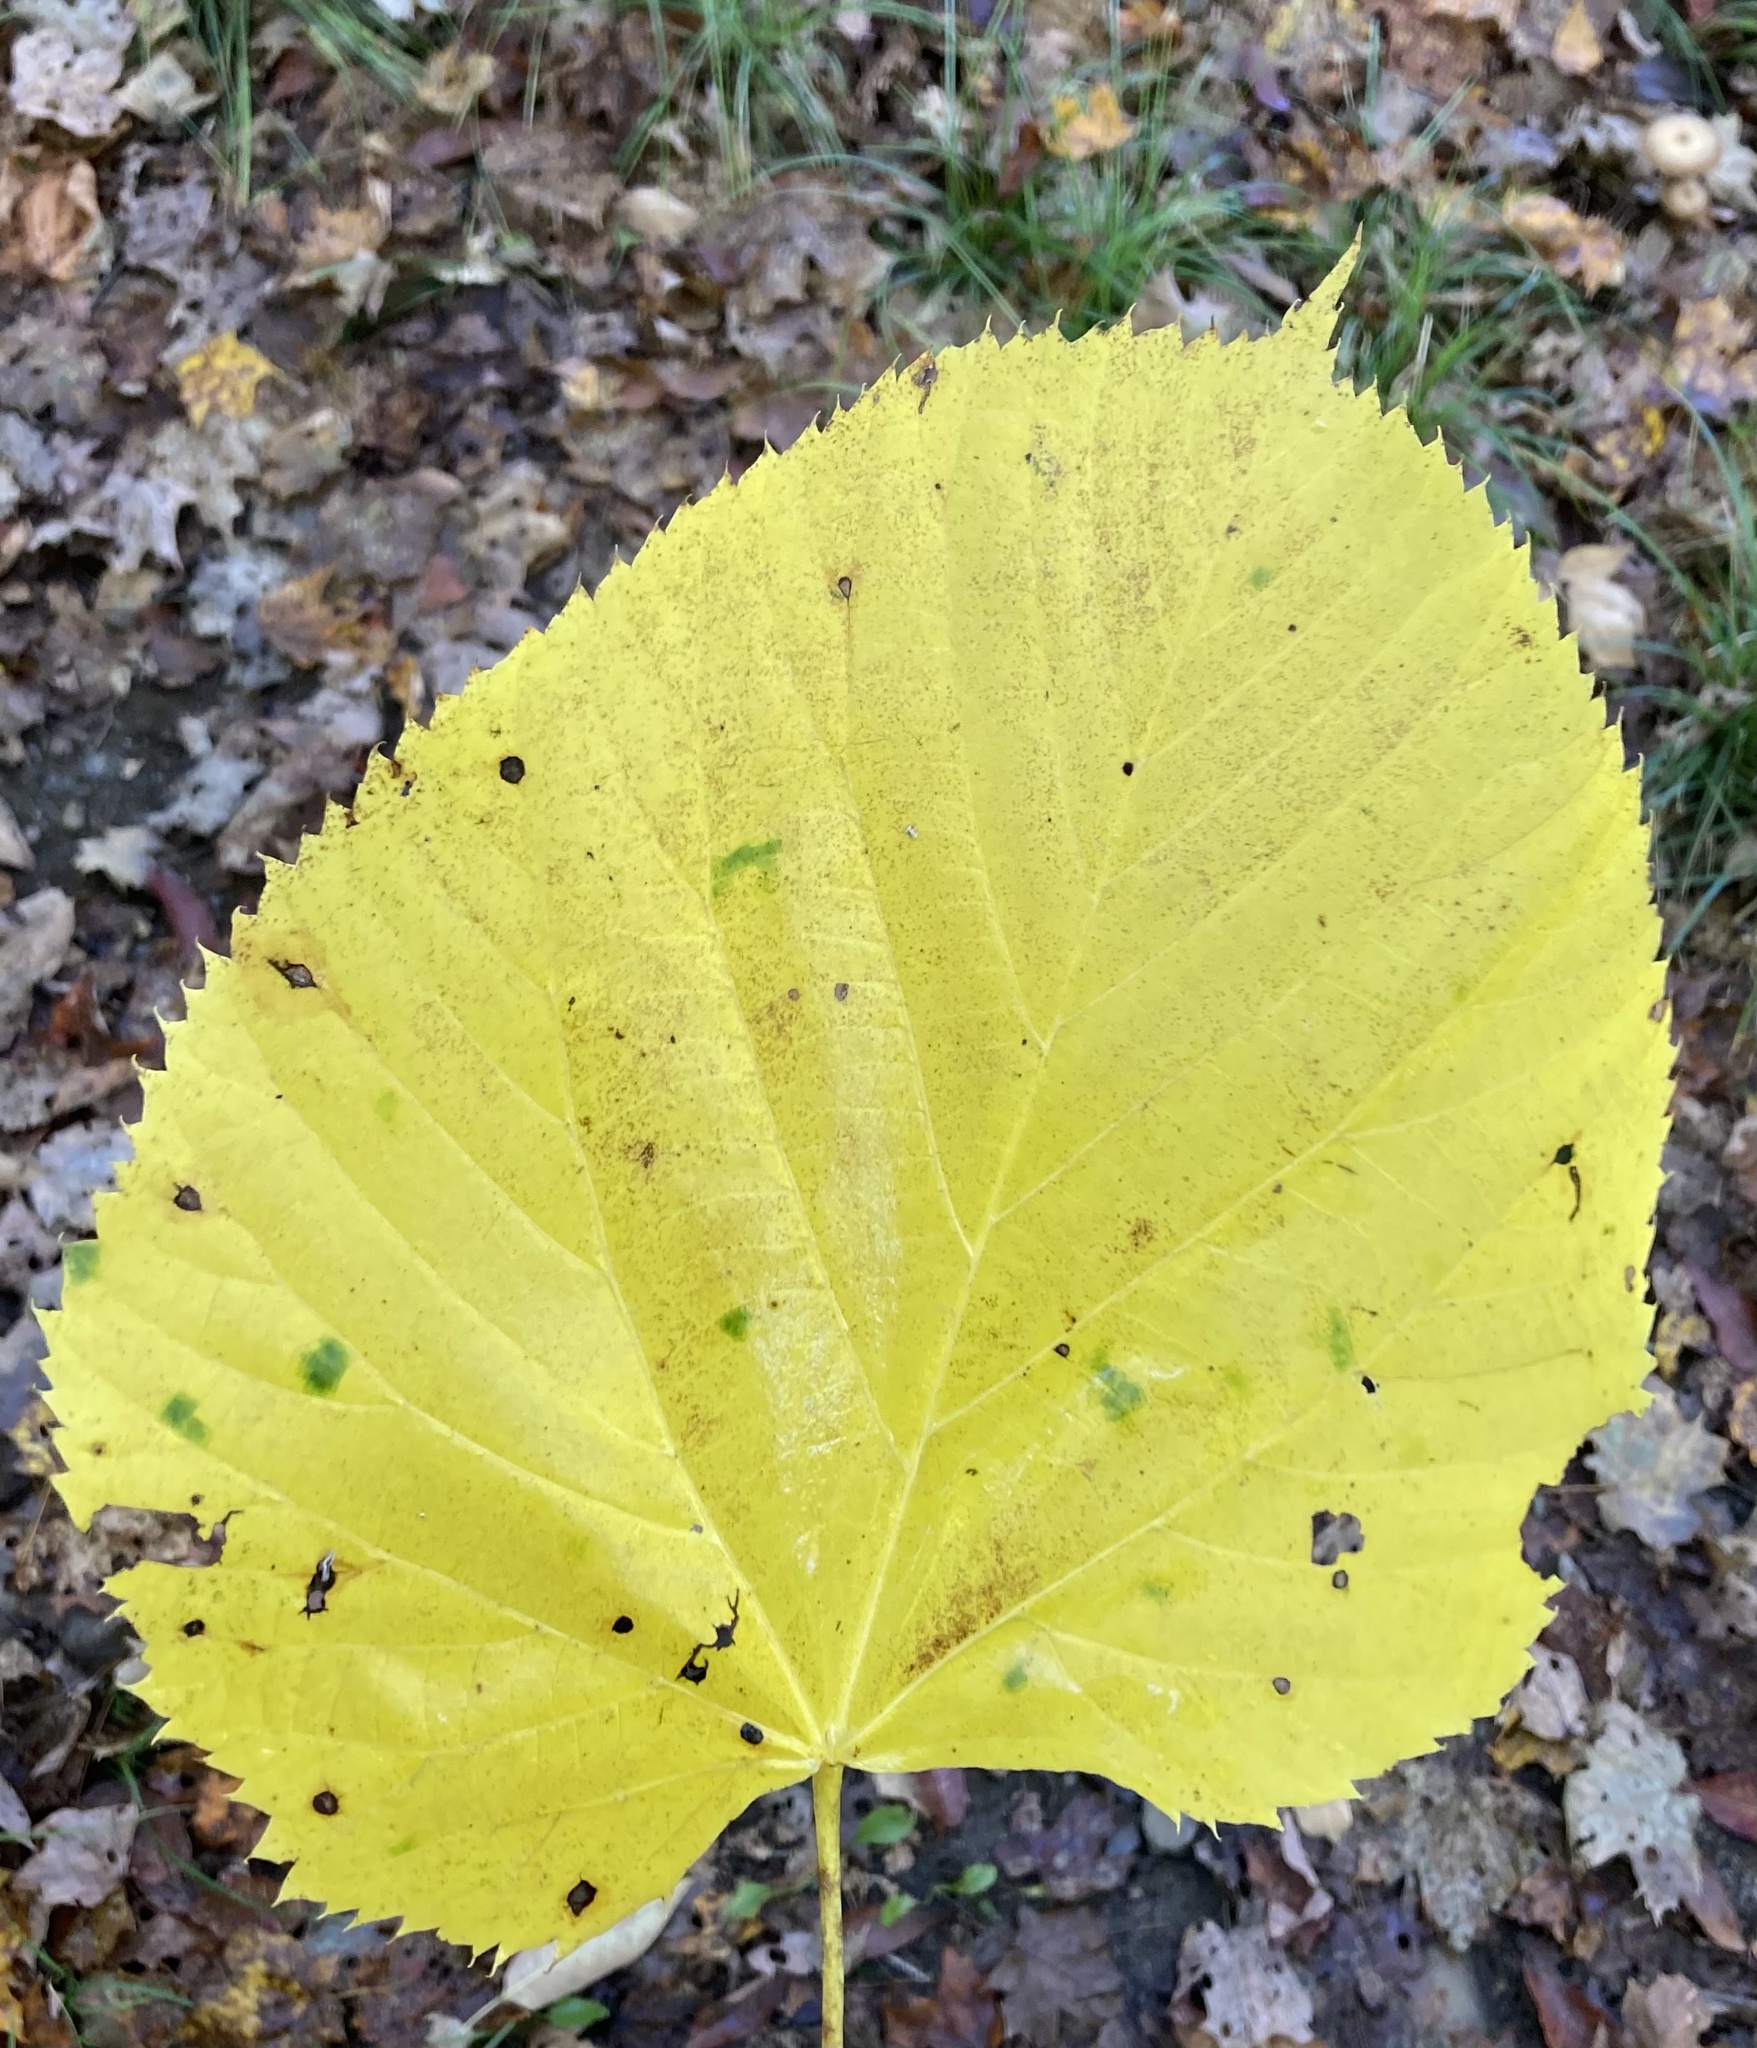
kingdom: Plantae
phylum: Tracheophyta
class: Magnoliopsida
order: Malvales
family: Malvaceae
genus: Tilia
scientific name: Tilia americana
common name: Basswood
